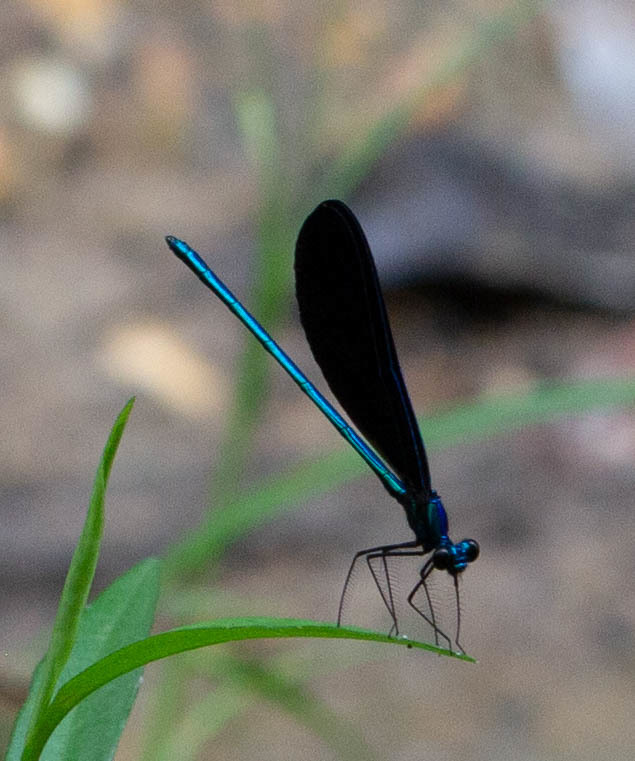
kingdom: Animalia
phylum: Arthropoda
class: Insecta
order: Odonata
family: Calopterygidae
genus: Calopteryx
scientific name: Calopteryx maculata
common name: Ebony jewelwing
